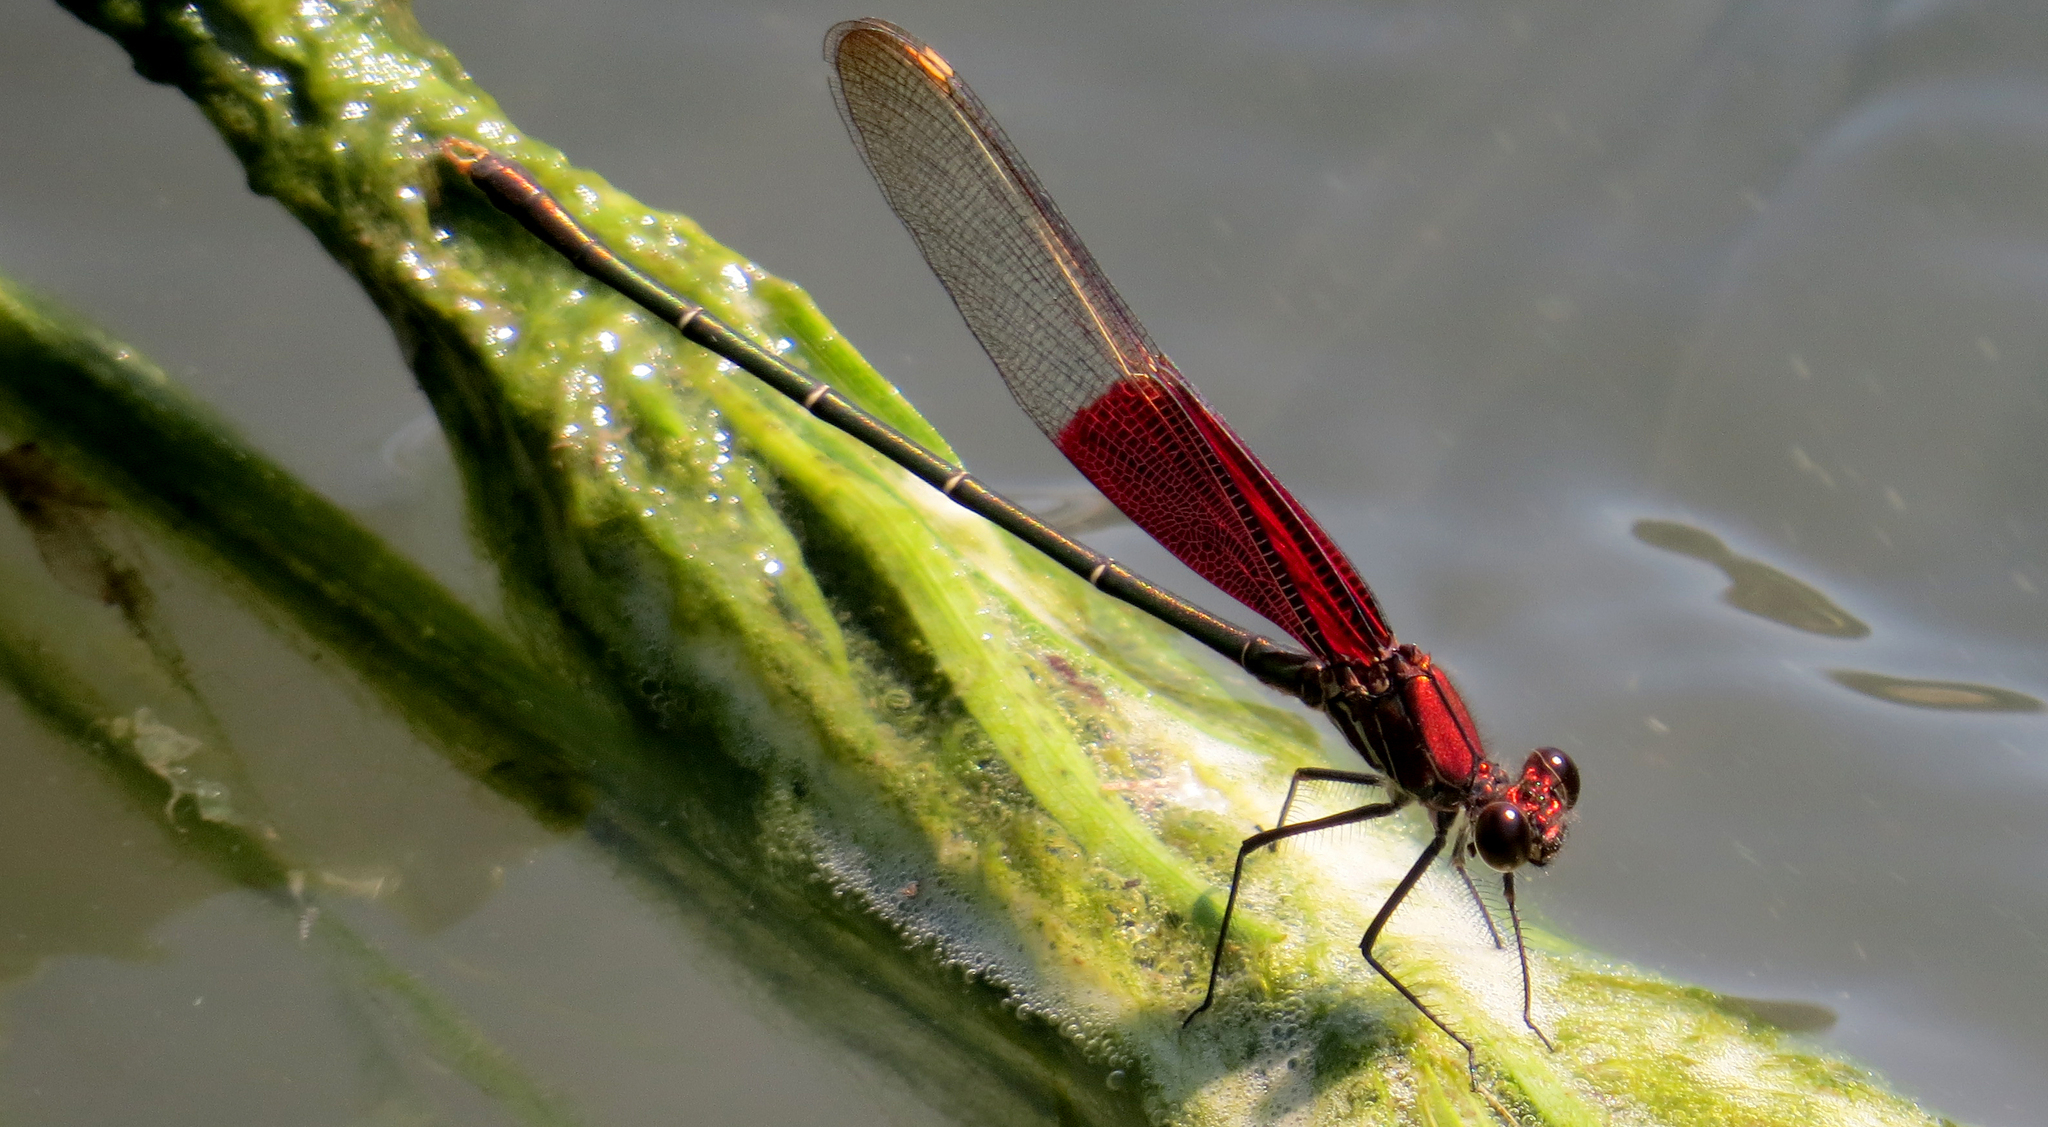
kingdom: Animalia
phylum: Arthropoda
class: Insecta
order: Odonata
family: Calopterygidae
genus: Hetaerina
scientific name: Hetaerina americana
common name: American rubyspot
